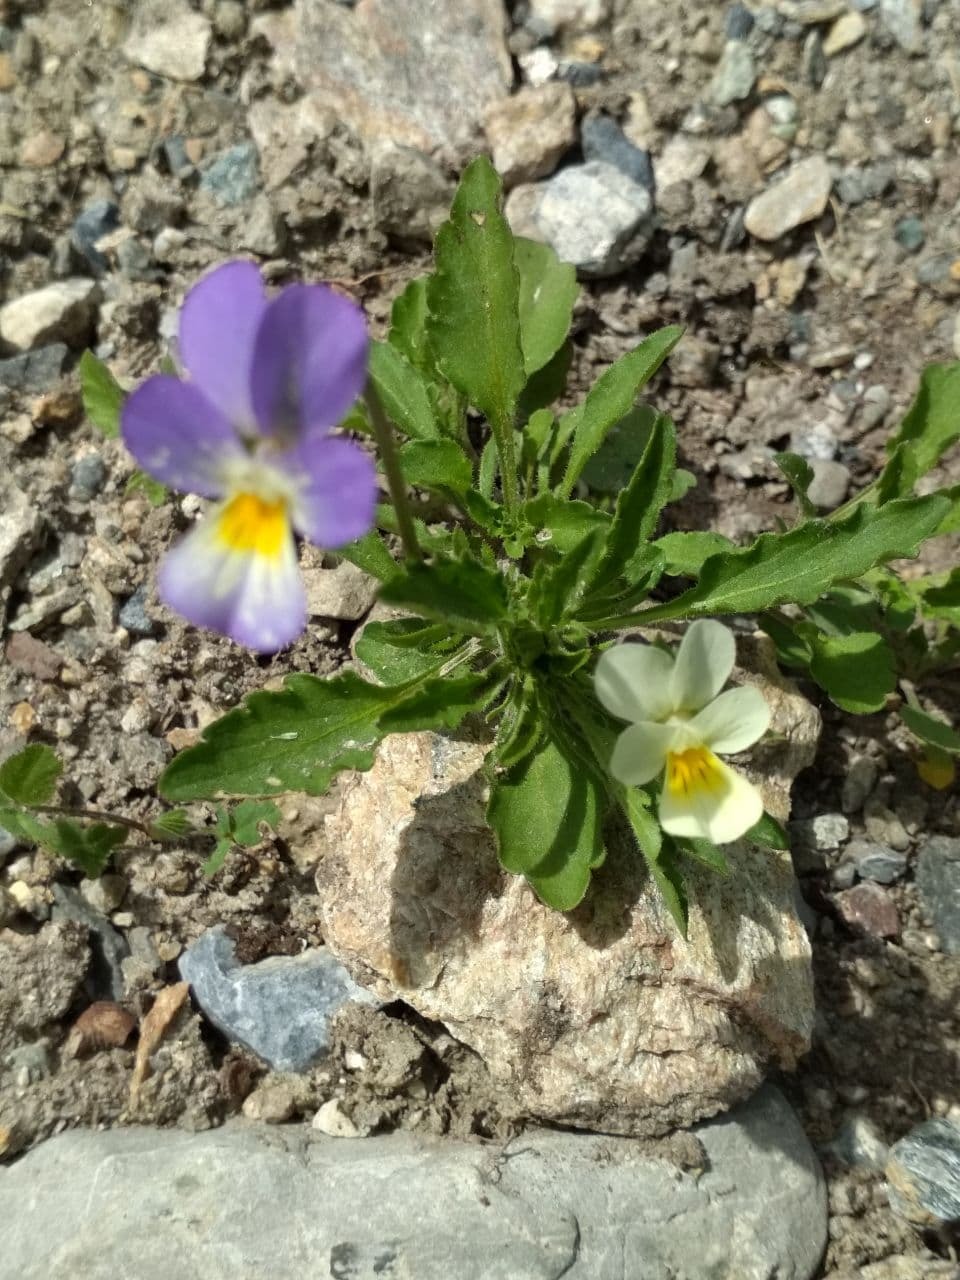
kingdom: Plantae
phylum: Tracheophyta
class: Magnoliopsida
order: Malpighiales
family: Violaceae
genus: Viola
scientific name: Viola tricolor
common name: Pansy
